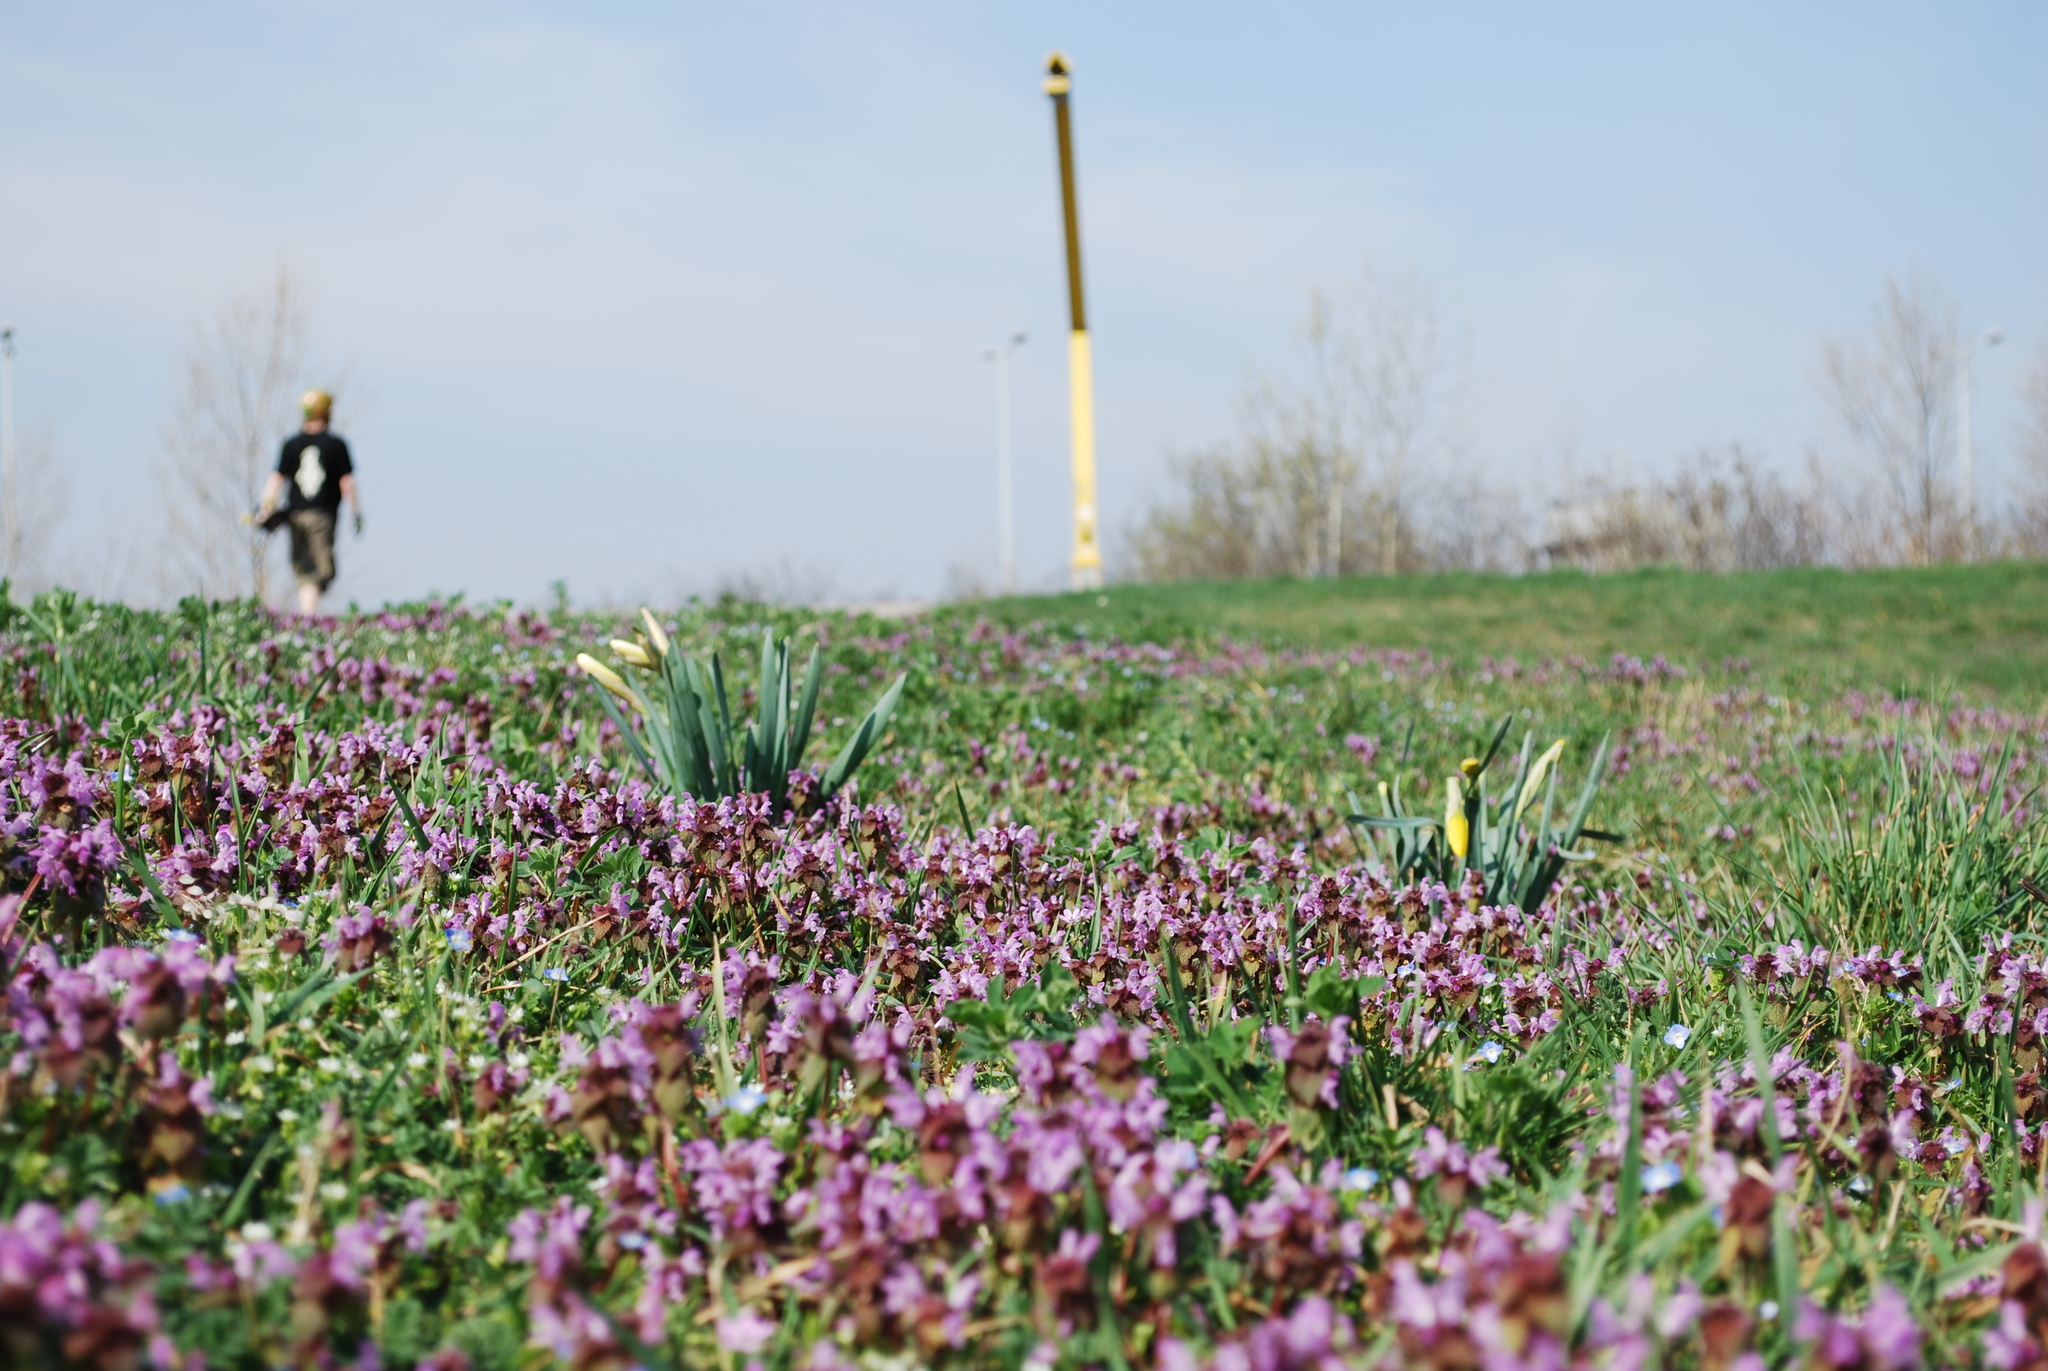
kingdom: Plantae
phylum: Tracheophyta
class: Liliopsida
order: Asparagales
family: Amaryllidaceae
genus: Narcissus
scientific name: Narcissus pseudonarcissus
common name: Daffodil
